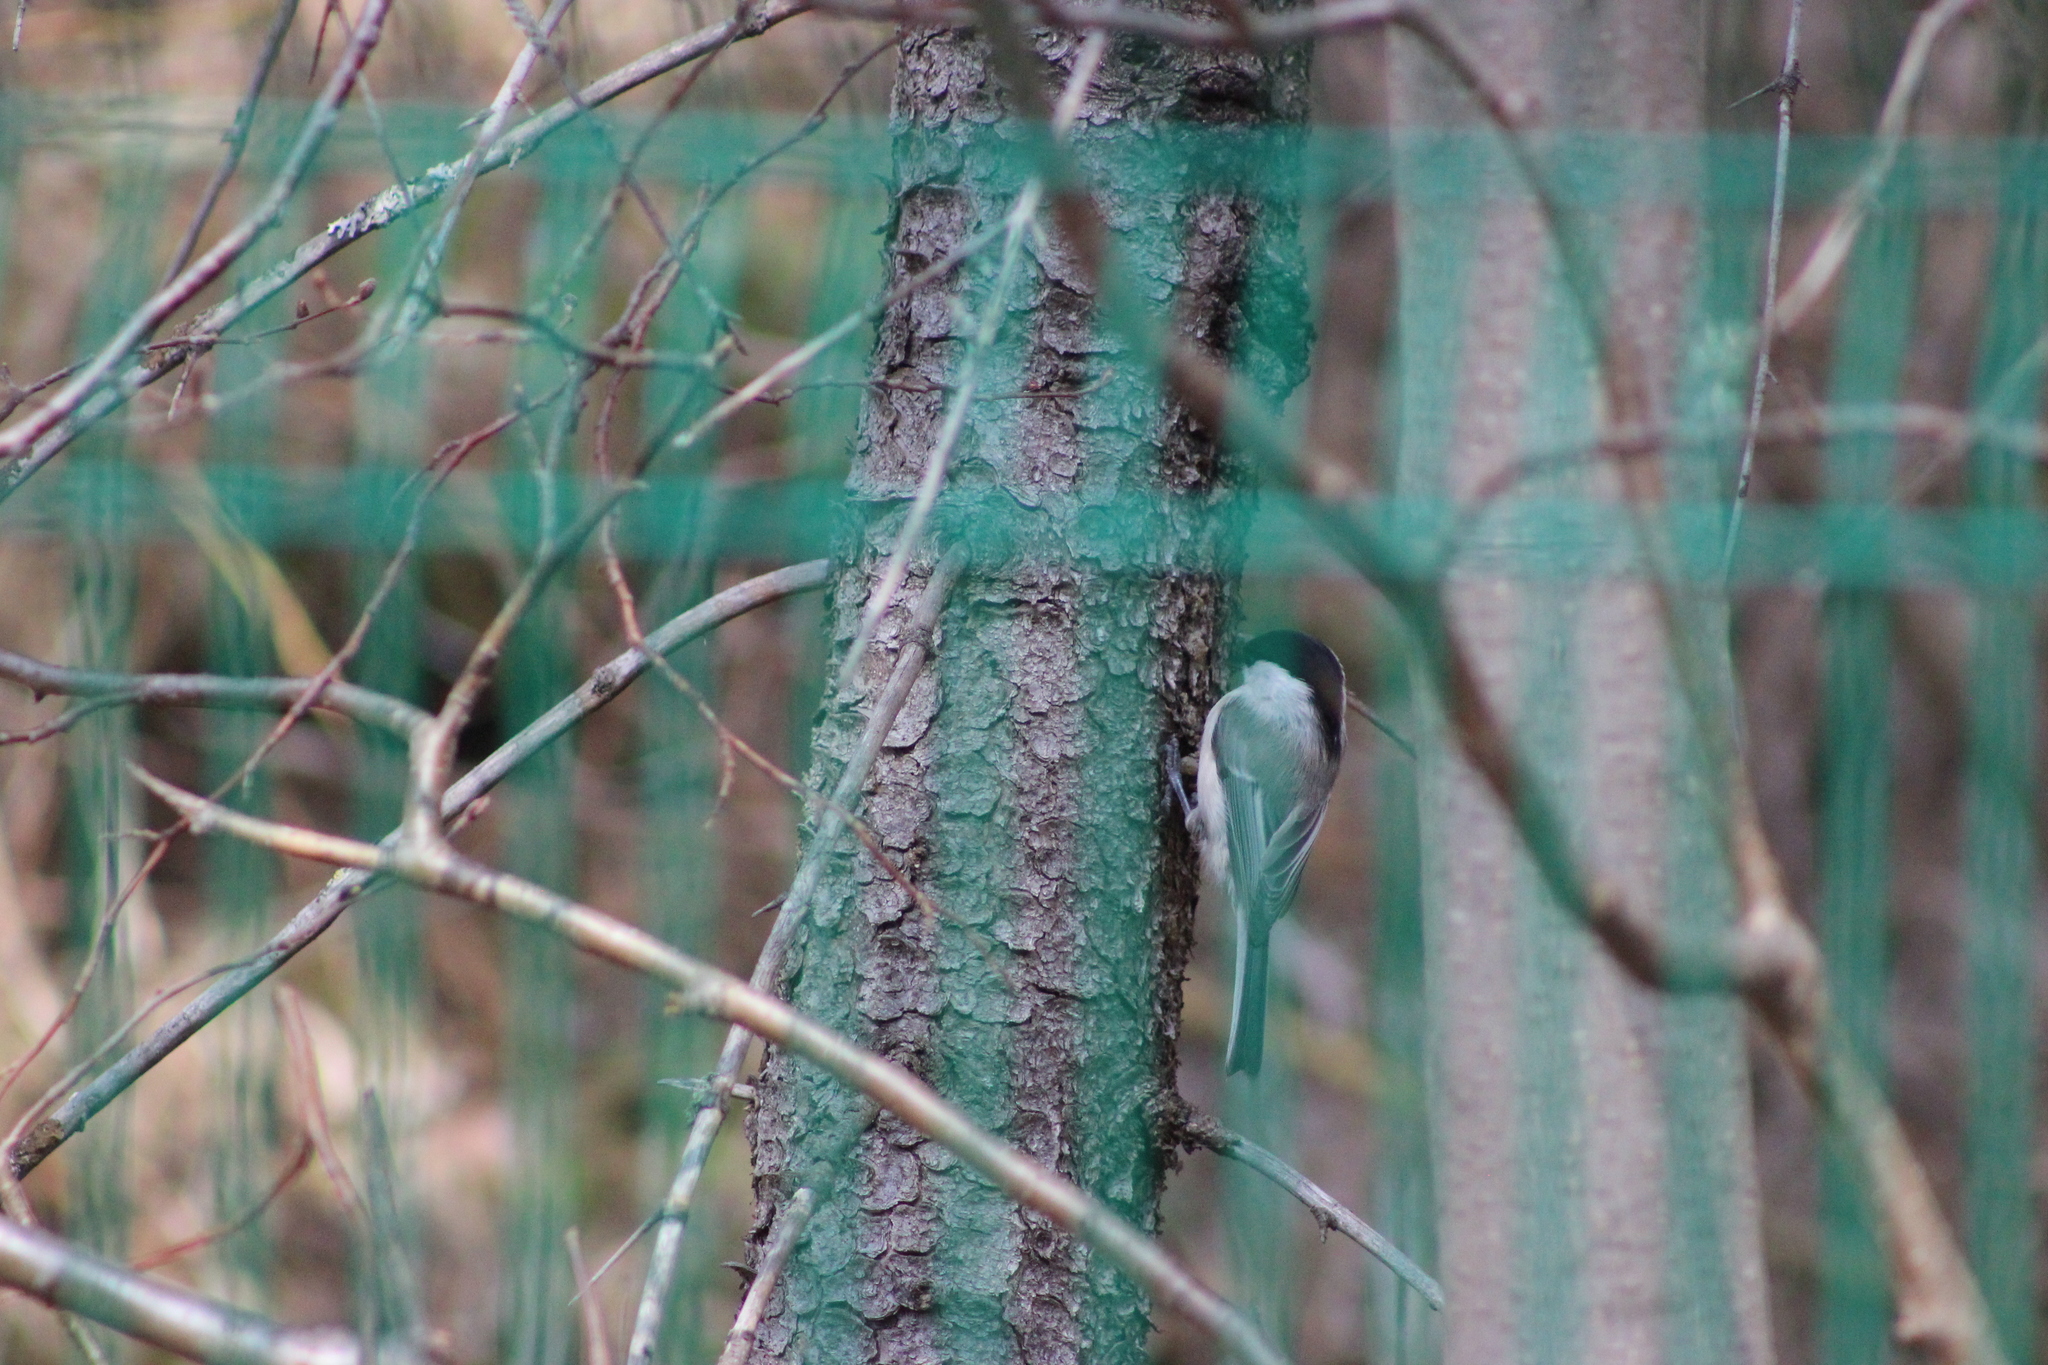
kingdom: Animalia
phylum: Chordata
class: Aves
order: Passeriformes
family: Paridae
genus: Poecile
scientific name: Poecile montanus
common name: Willow tit
